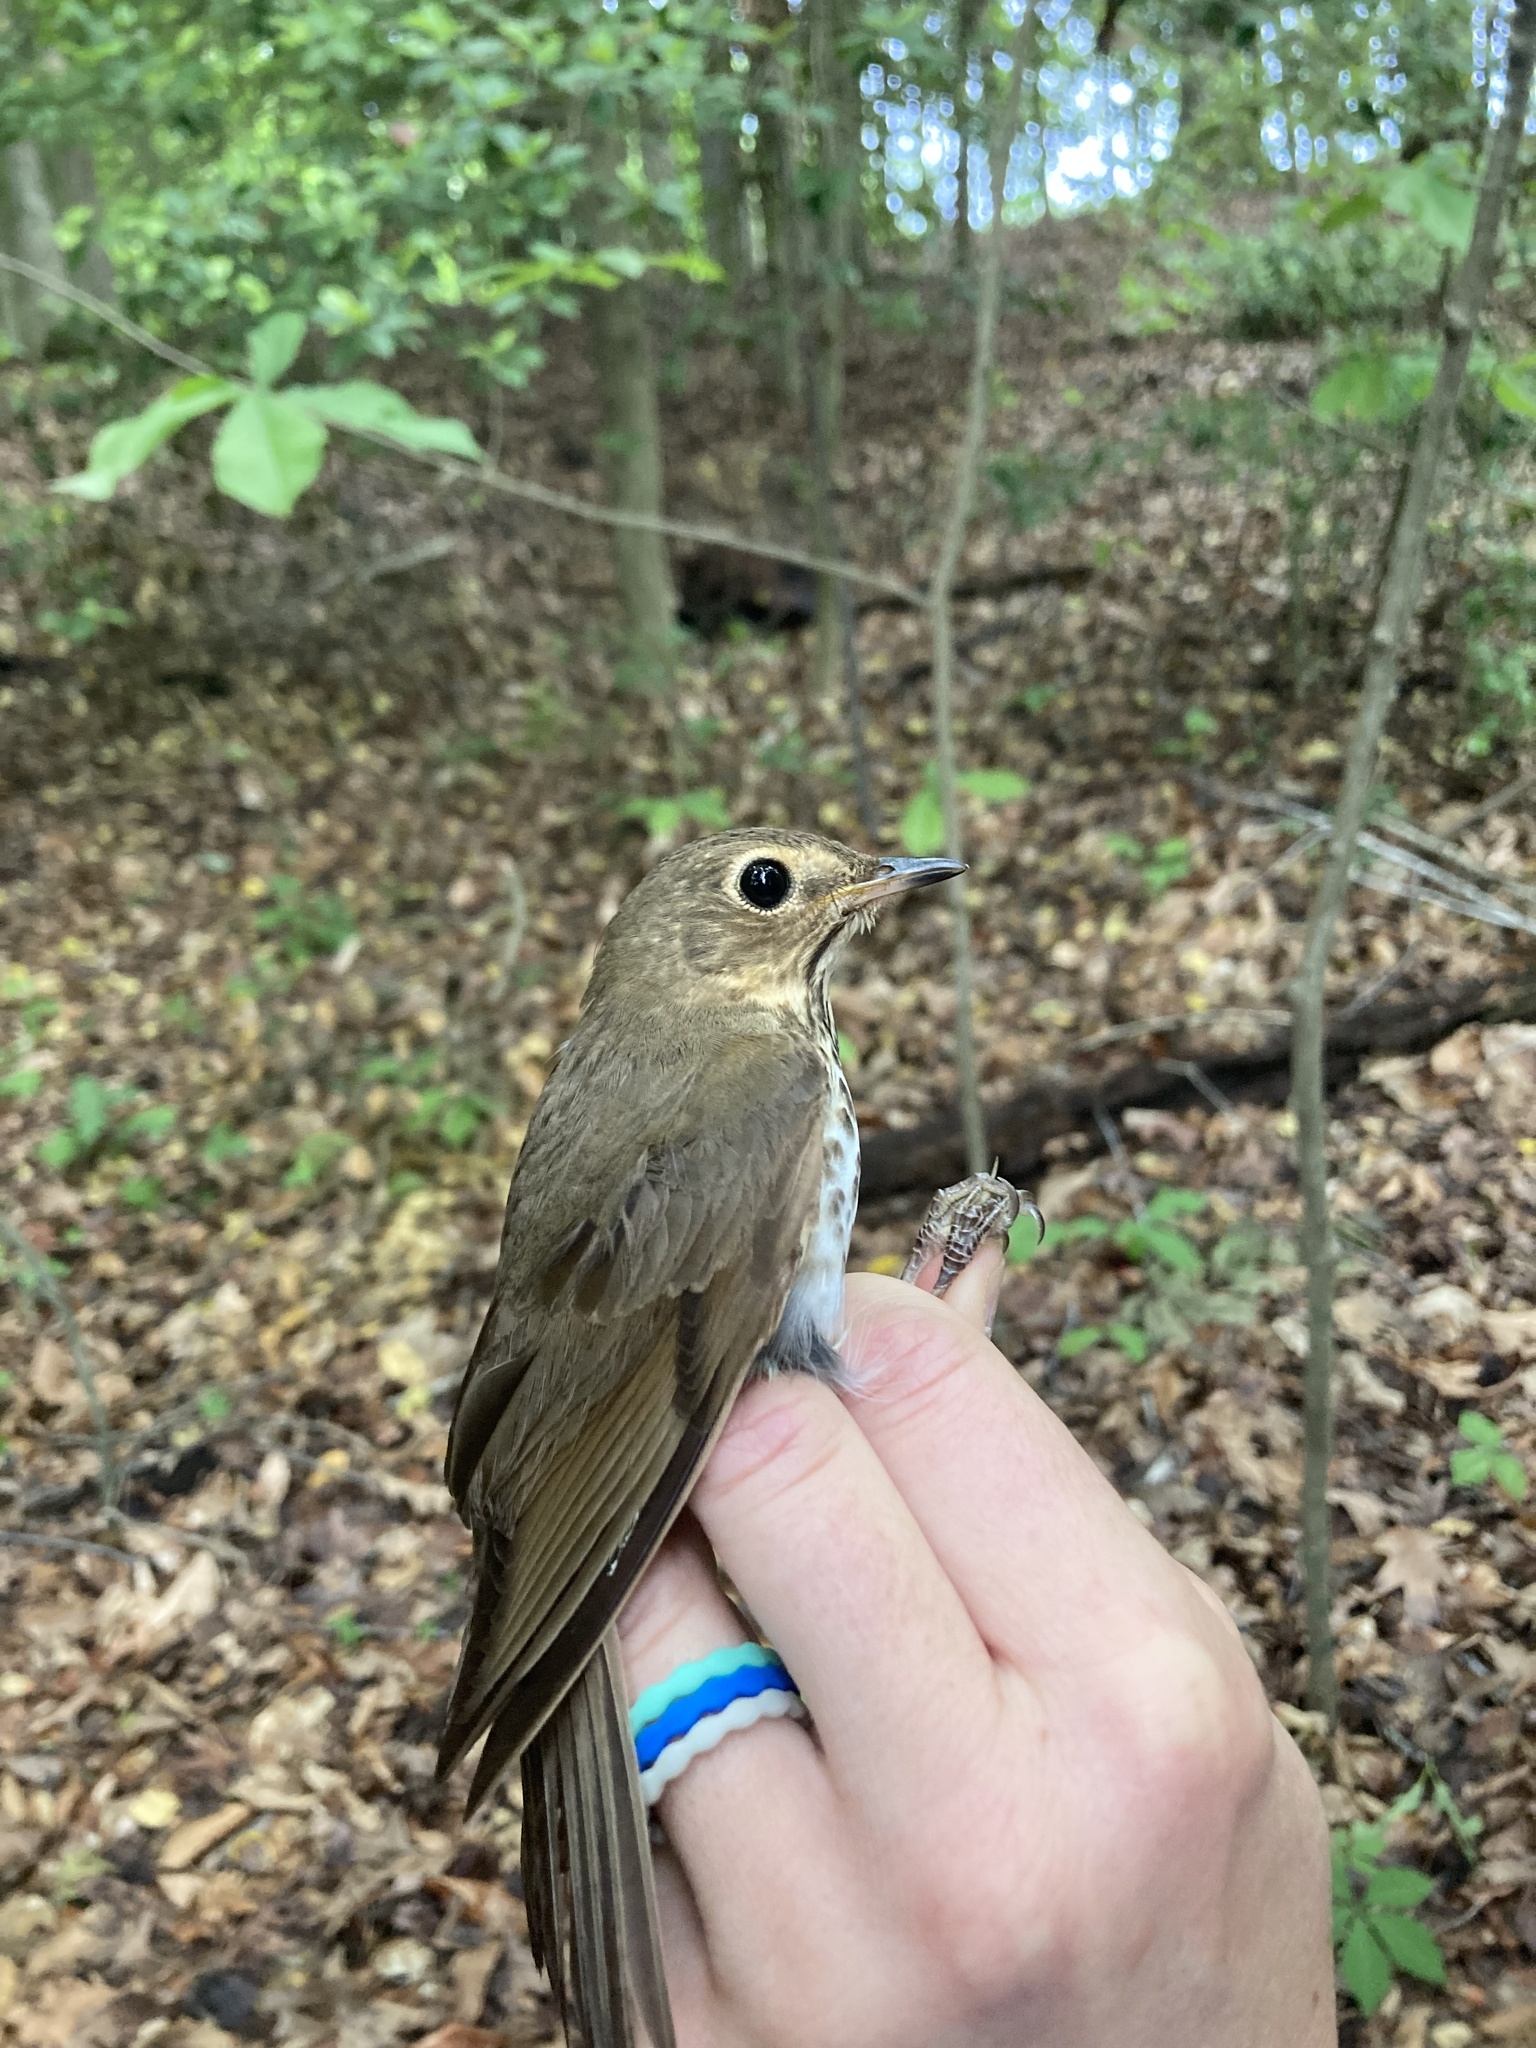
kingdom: Animalia
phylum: Chordata
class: Aves
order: Passeriformes
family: Turdidae
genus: Catharus
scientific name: Catharus ustulatus
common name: Swainson's thrush
